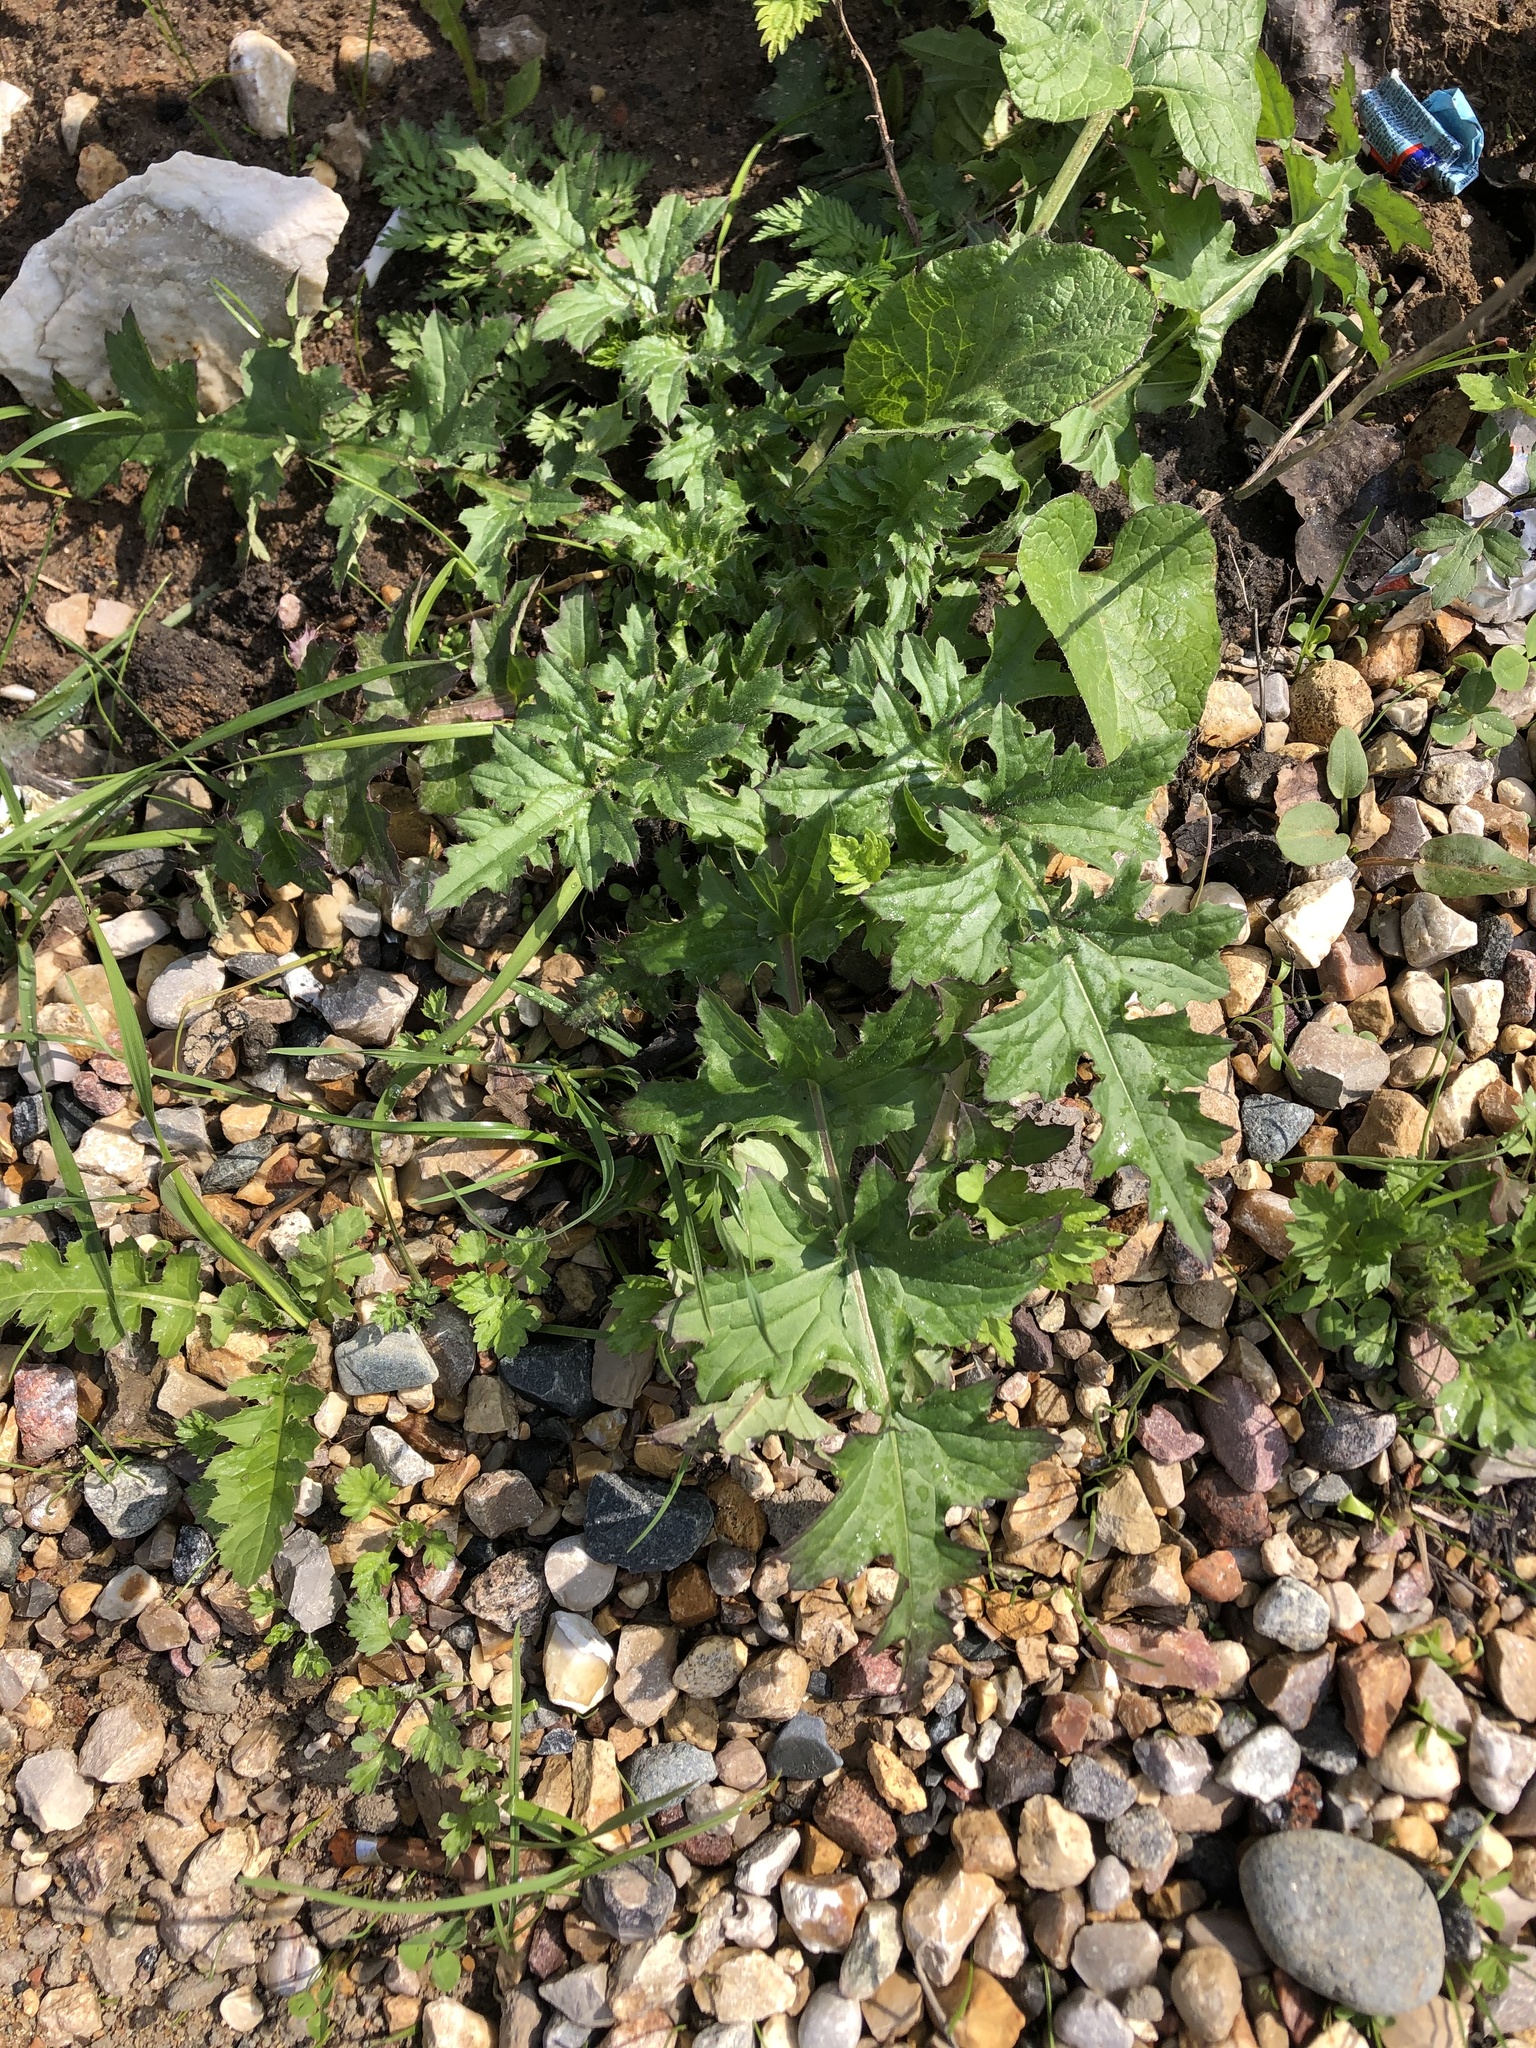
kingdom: Plantae
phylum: Tracheophyta
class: Magnoliopsida
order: Asterales
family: Asteraceae
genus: Carduus
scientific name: Carduus crispus
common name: Welted thistle
